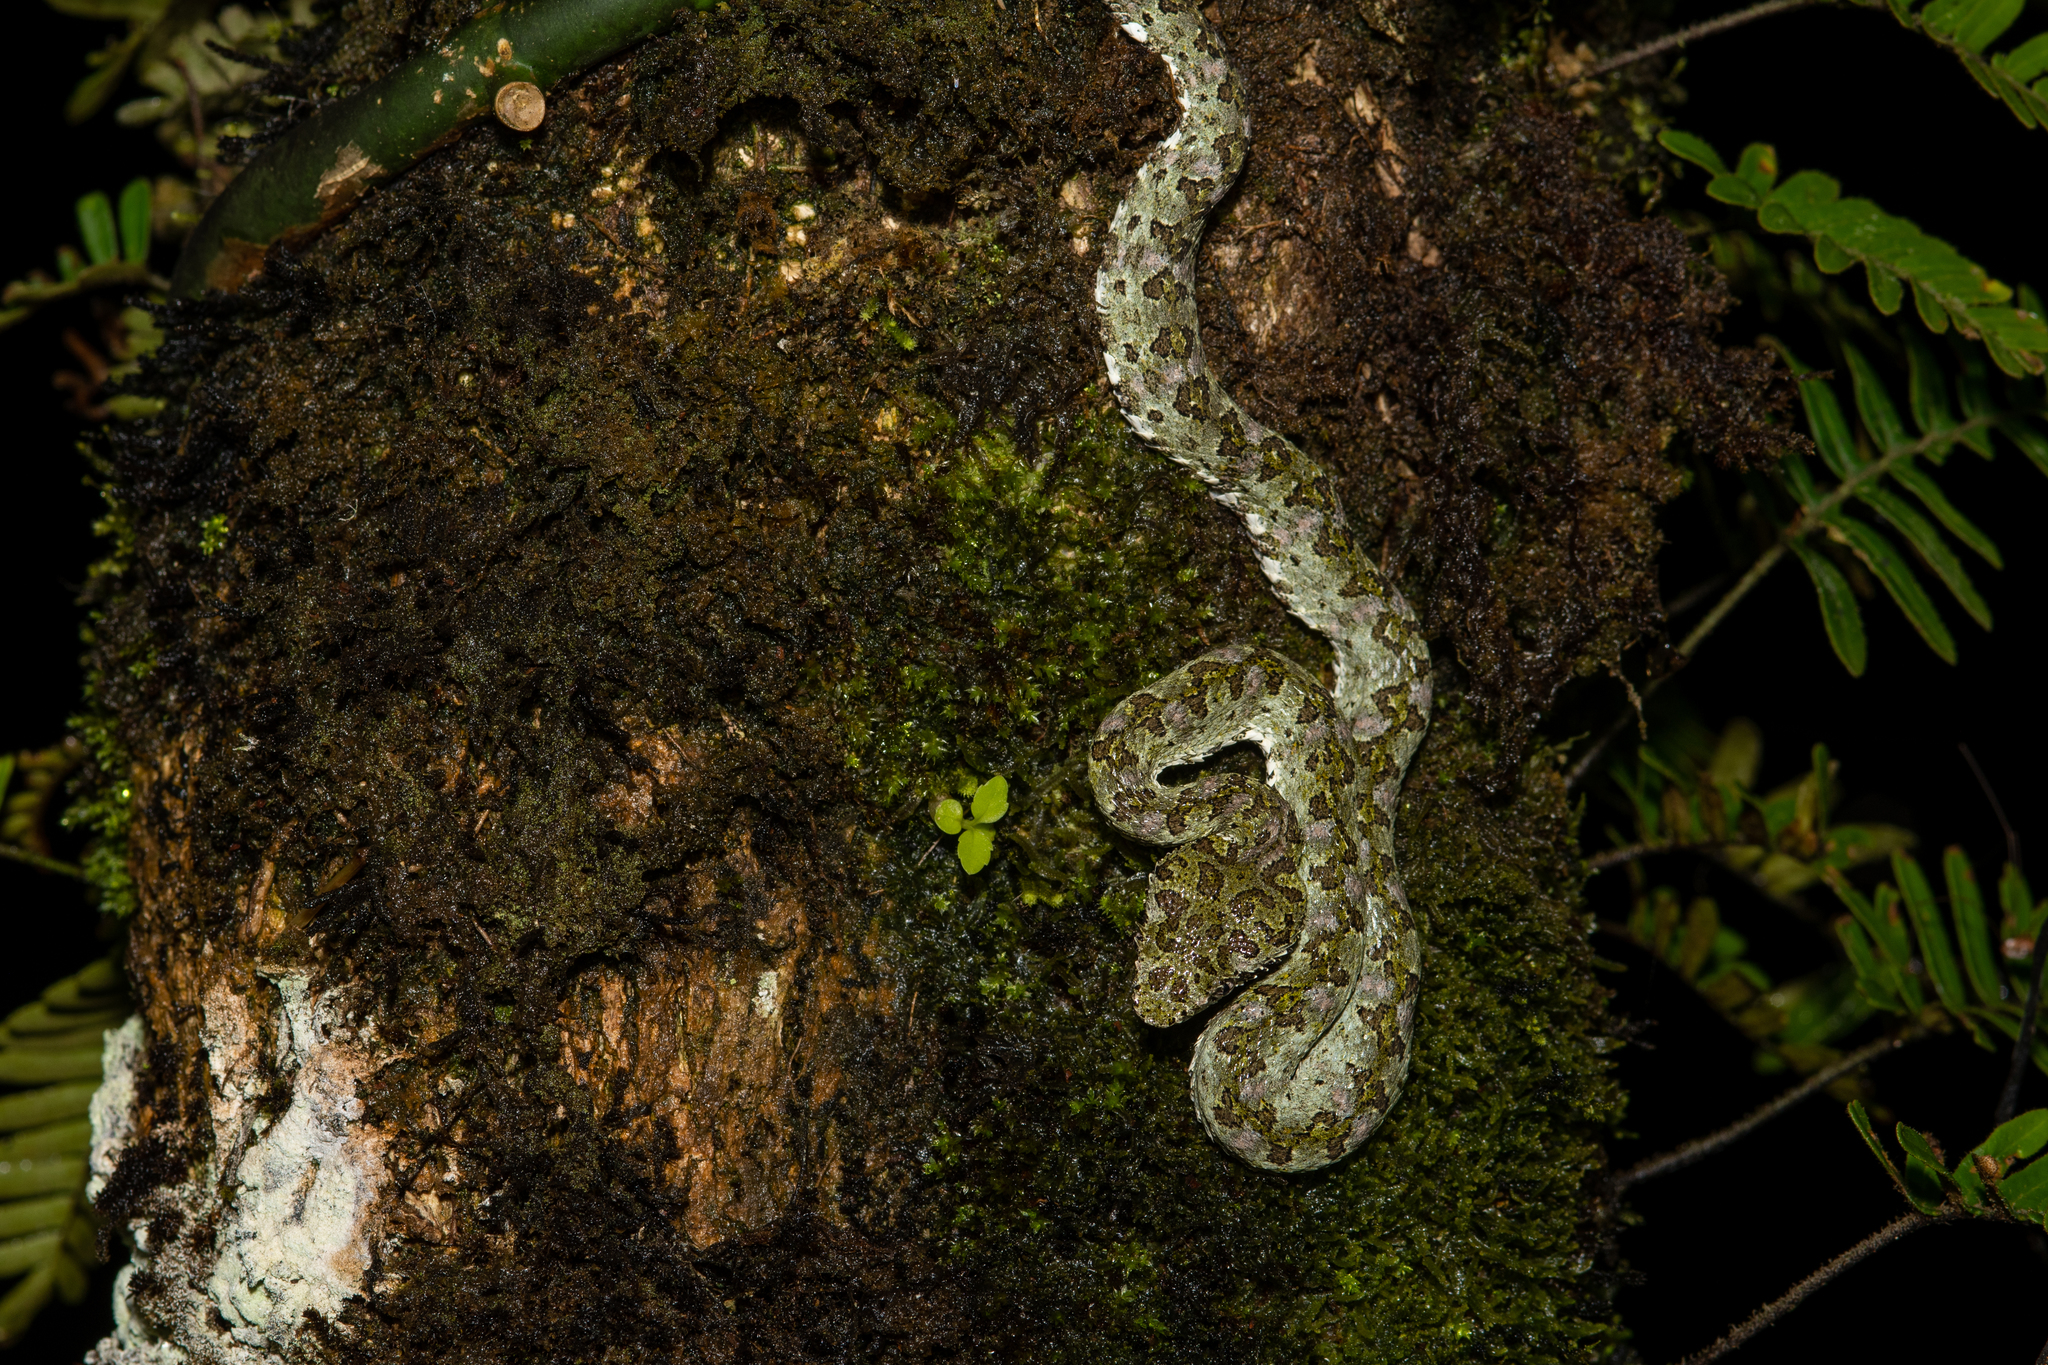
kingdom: Animalia
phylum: Chordata
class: Squamata
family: Viperidae
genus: Bothriechis
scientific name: Bothriechis schlegelii
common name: Eyelash viper
